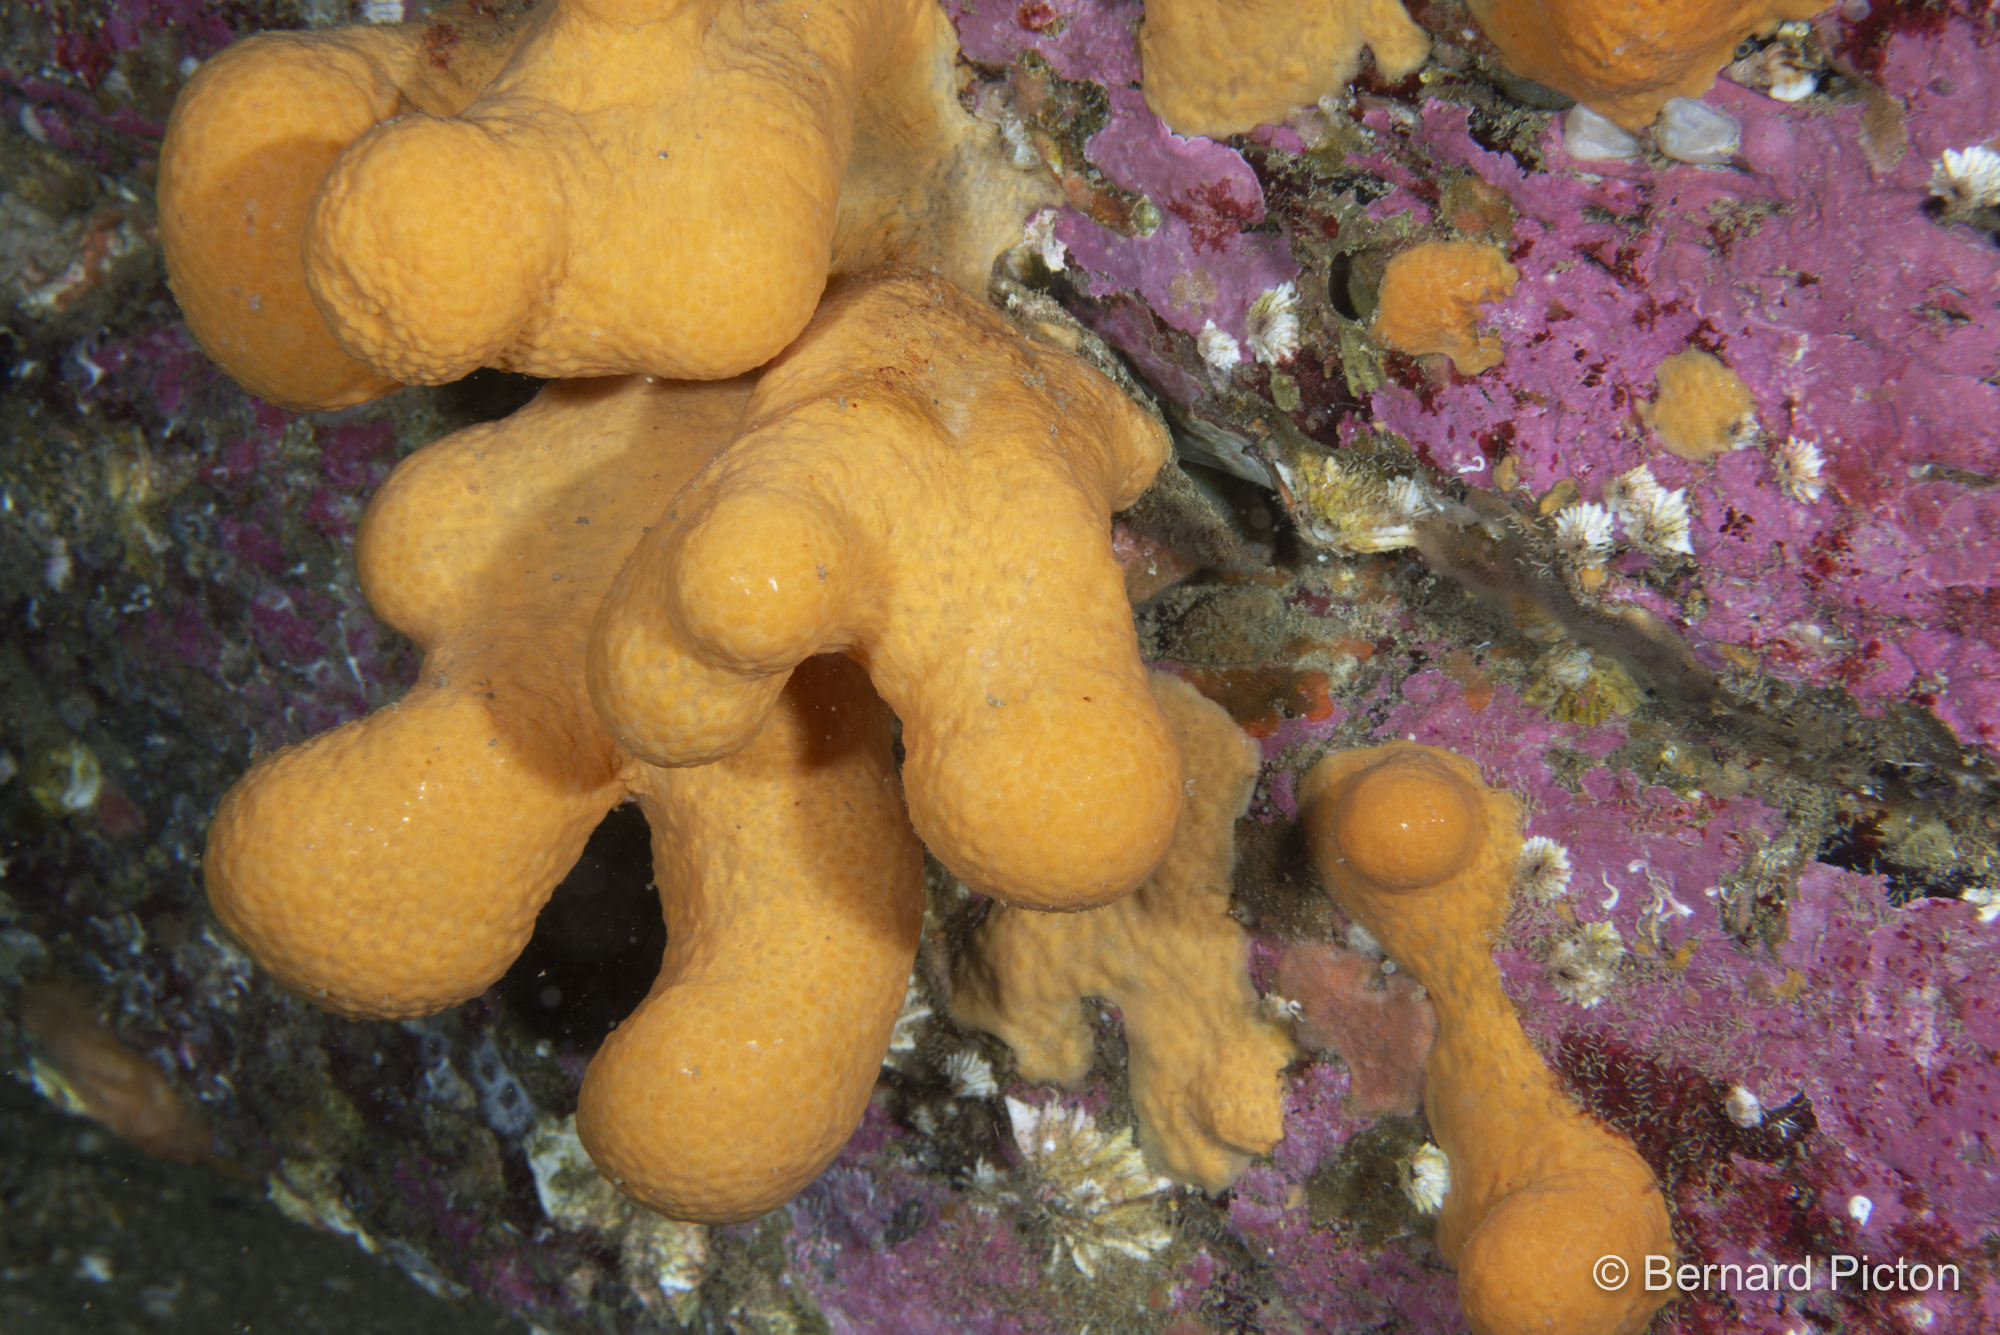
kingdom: Animalia
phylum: Cnidaria
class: Anthozoa
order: Malacalcyonacea
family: Alcyoniidae
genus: Alcyonium
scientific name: Alcyonium digitatum
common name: Dead man's fingers
